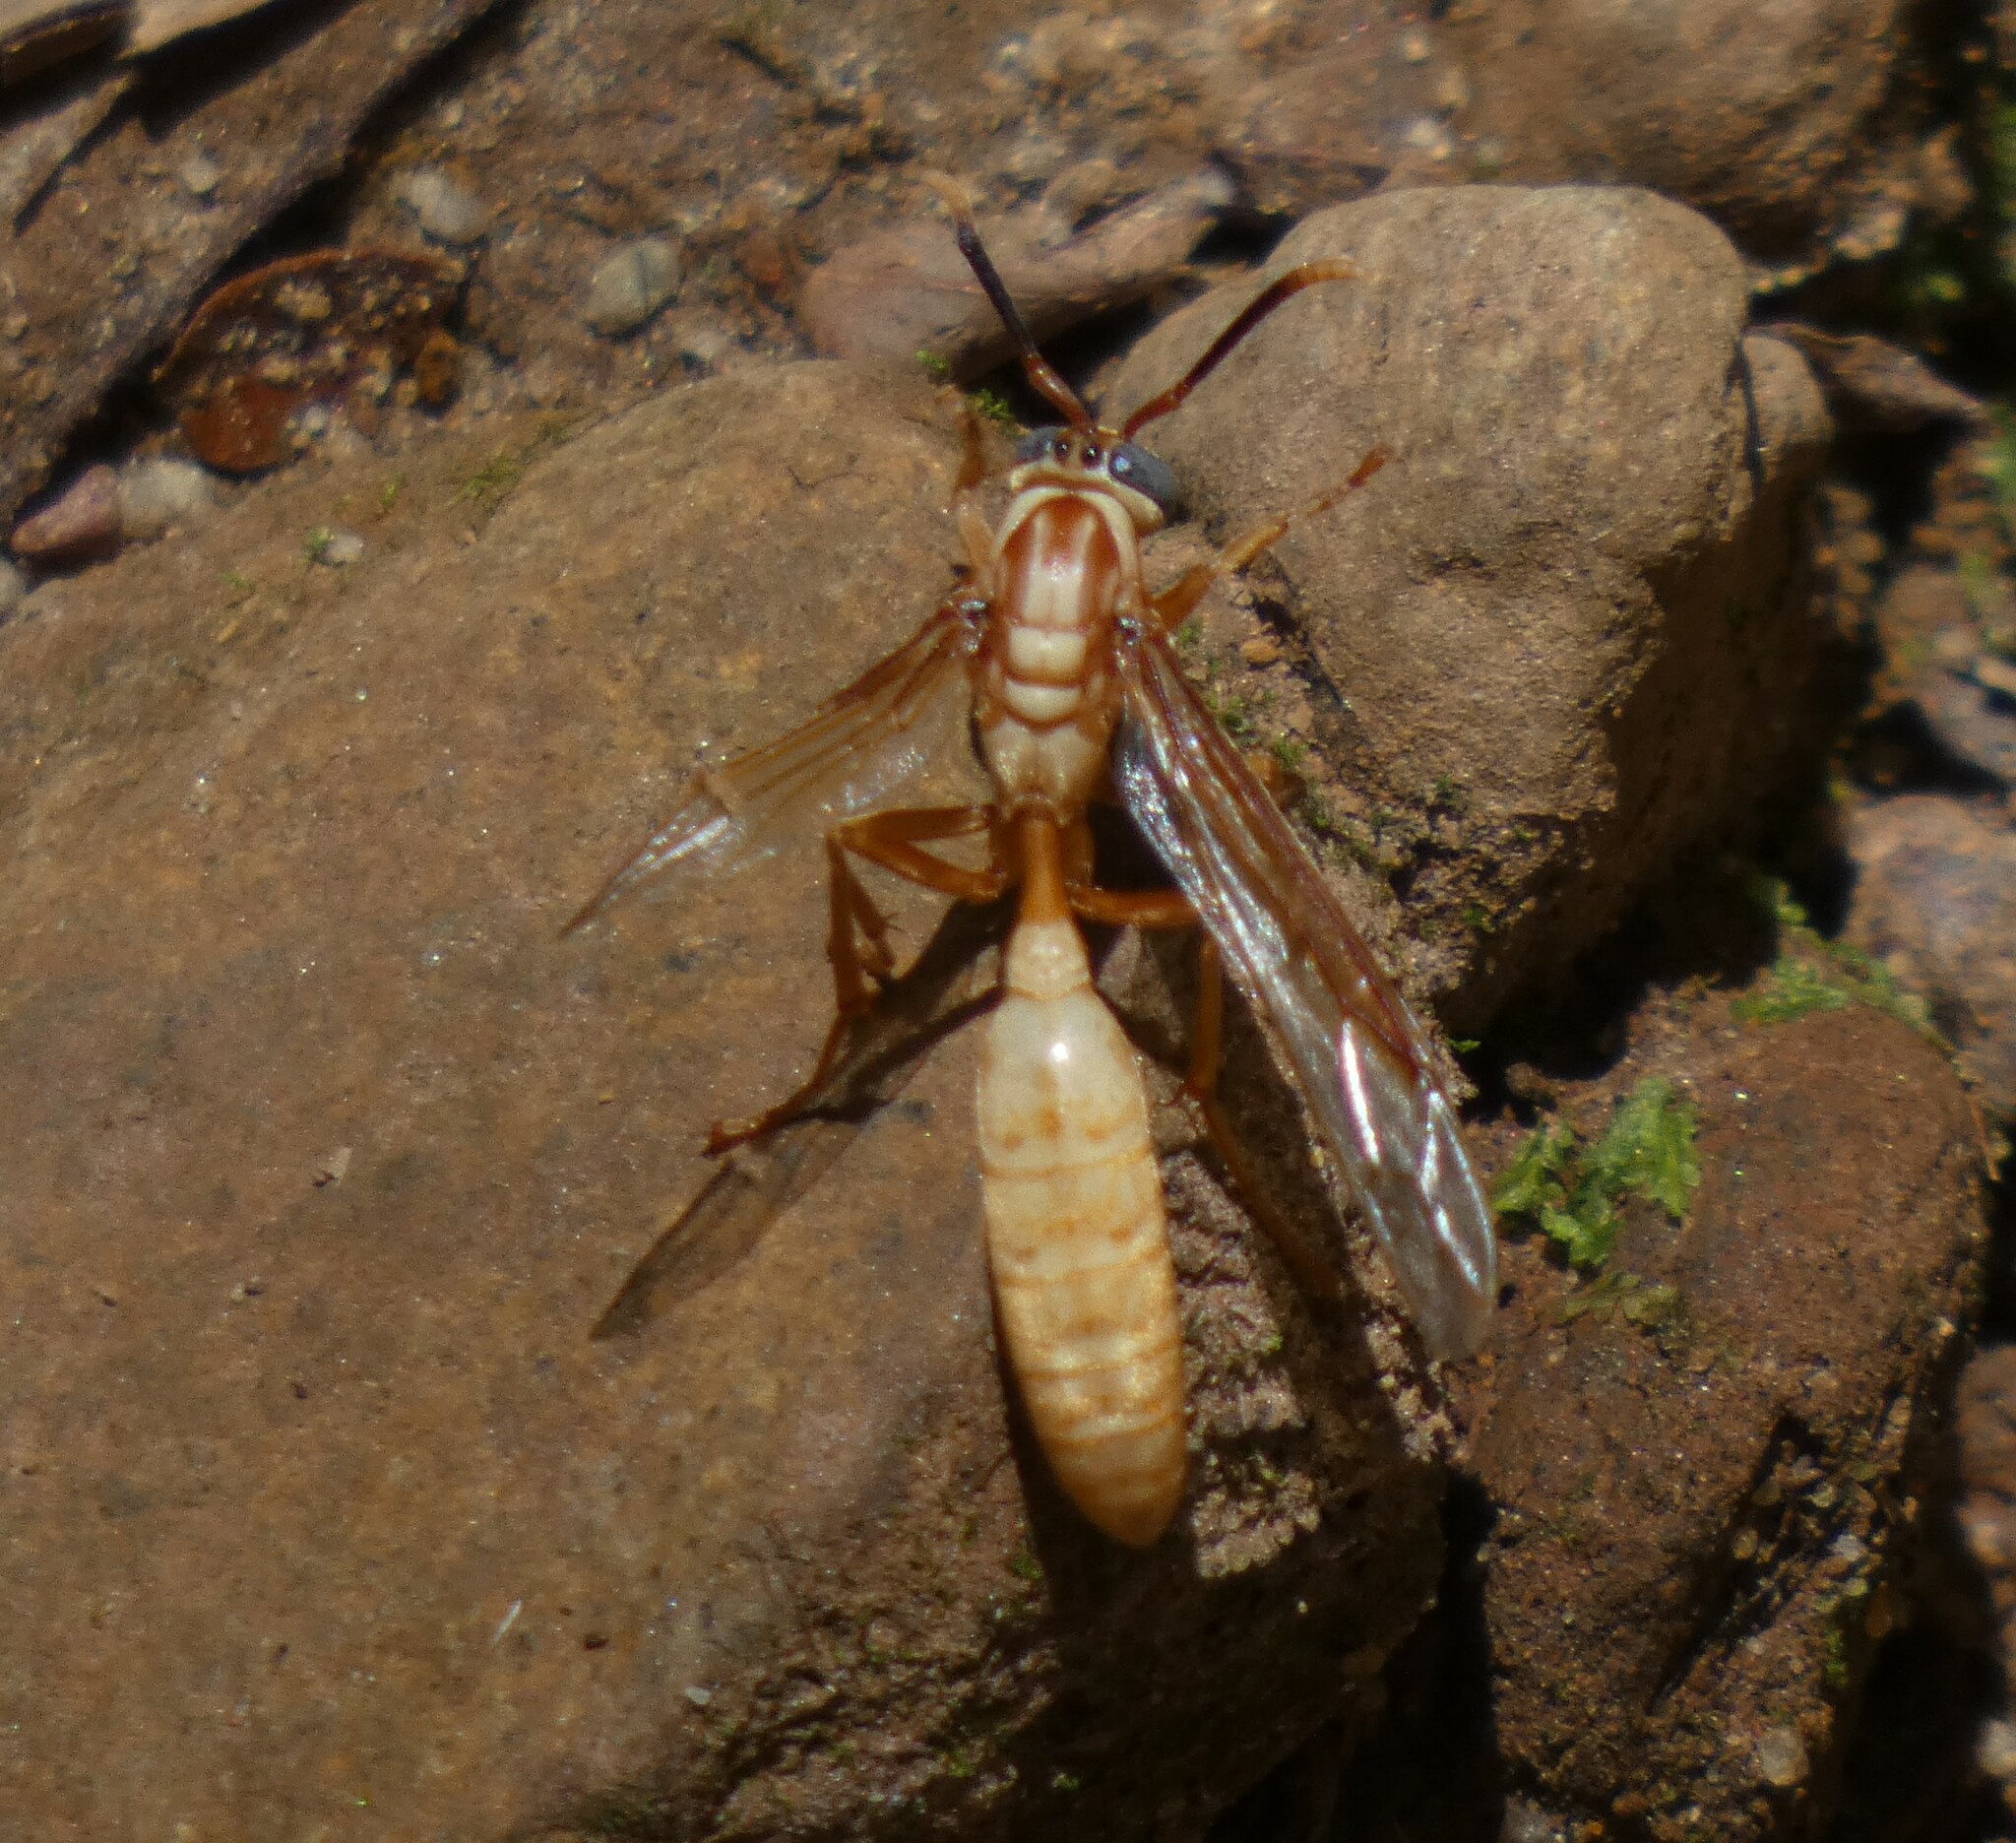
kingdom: Animalia
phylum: Arthropoda
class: Insecta
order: Hymenoptera
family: Vespidae
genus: Apoica
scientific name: Apoica flavissima
